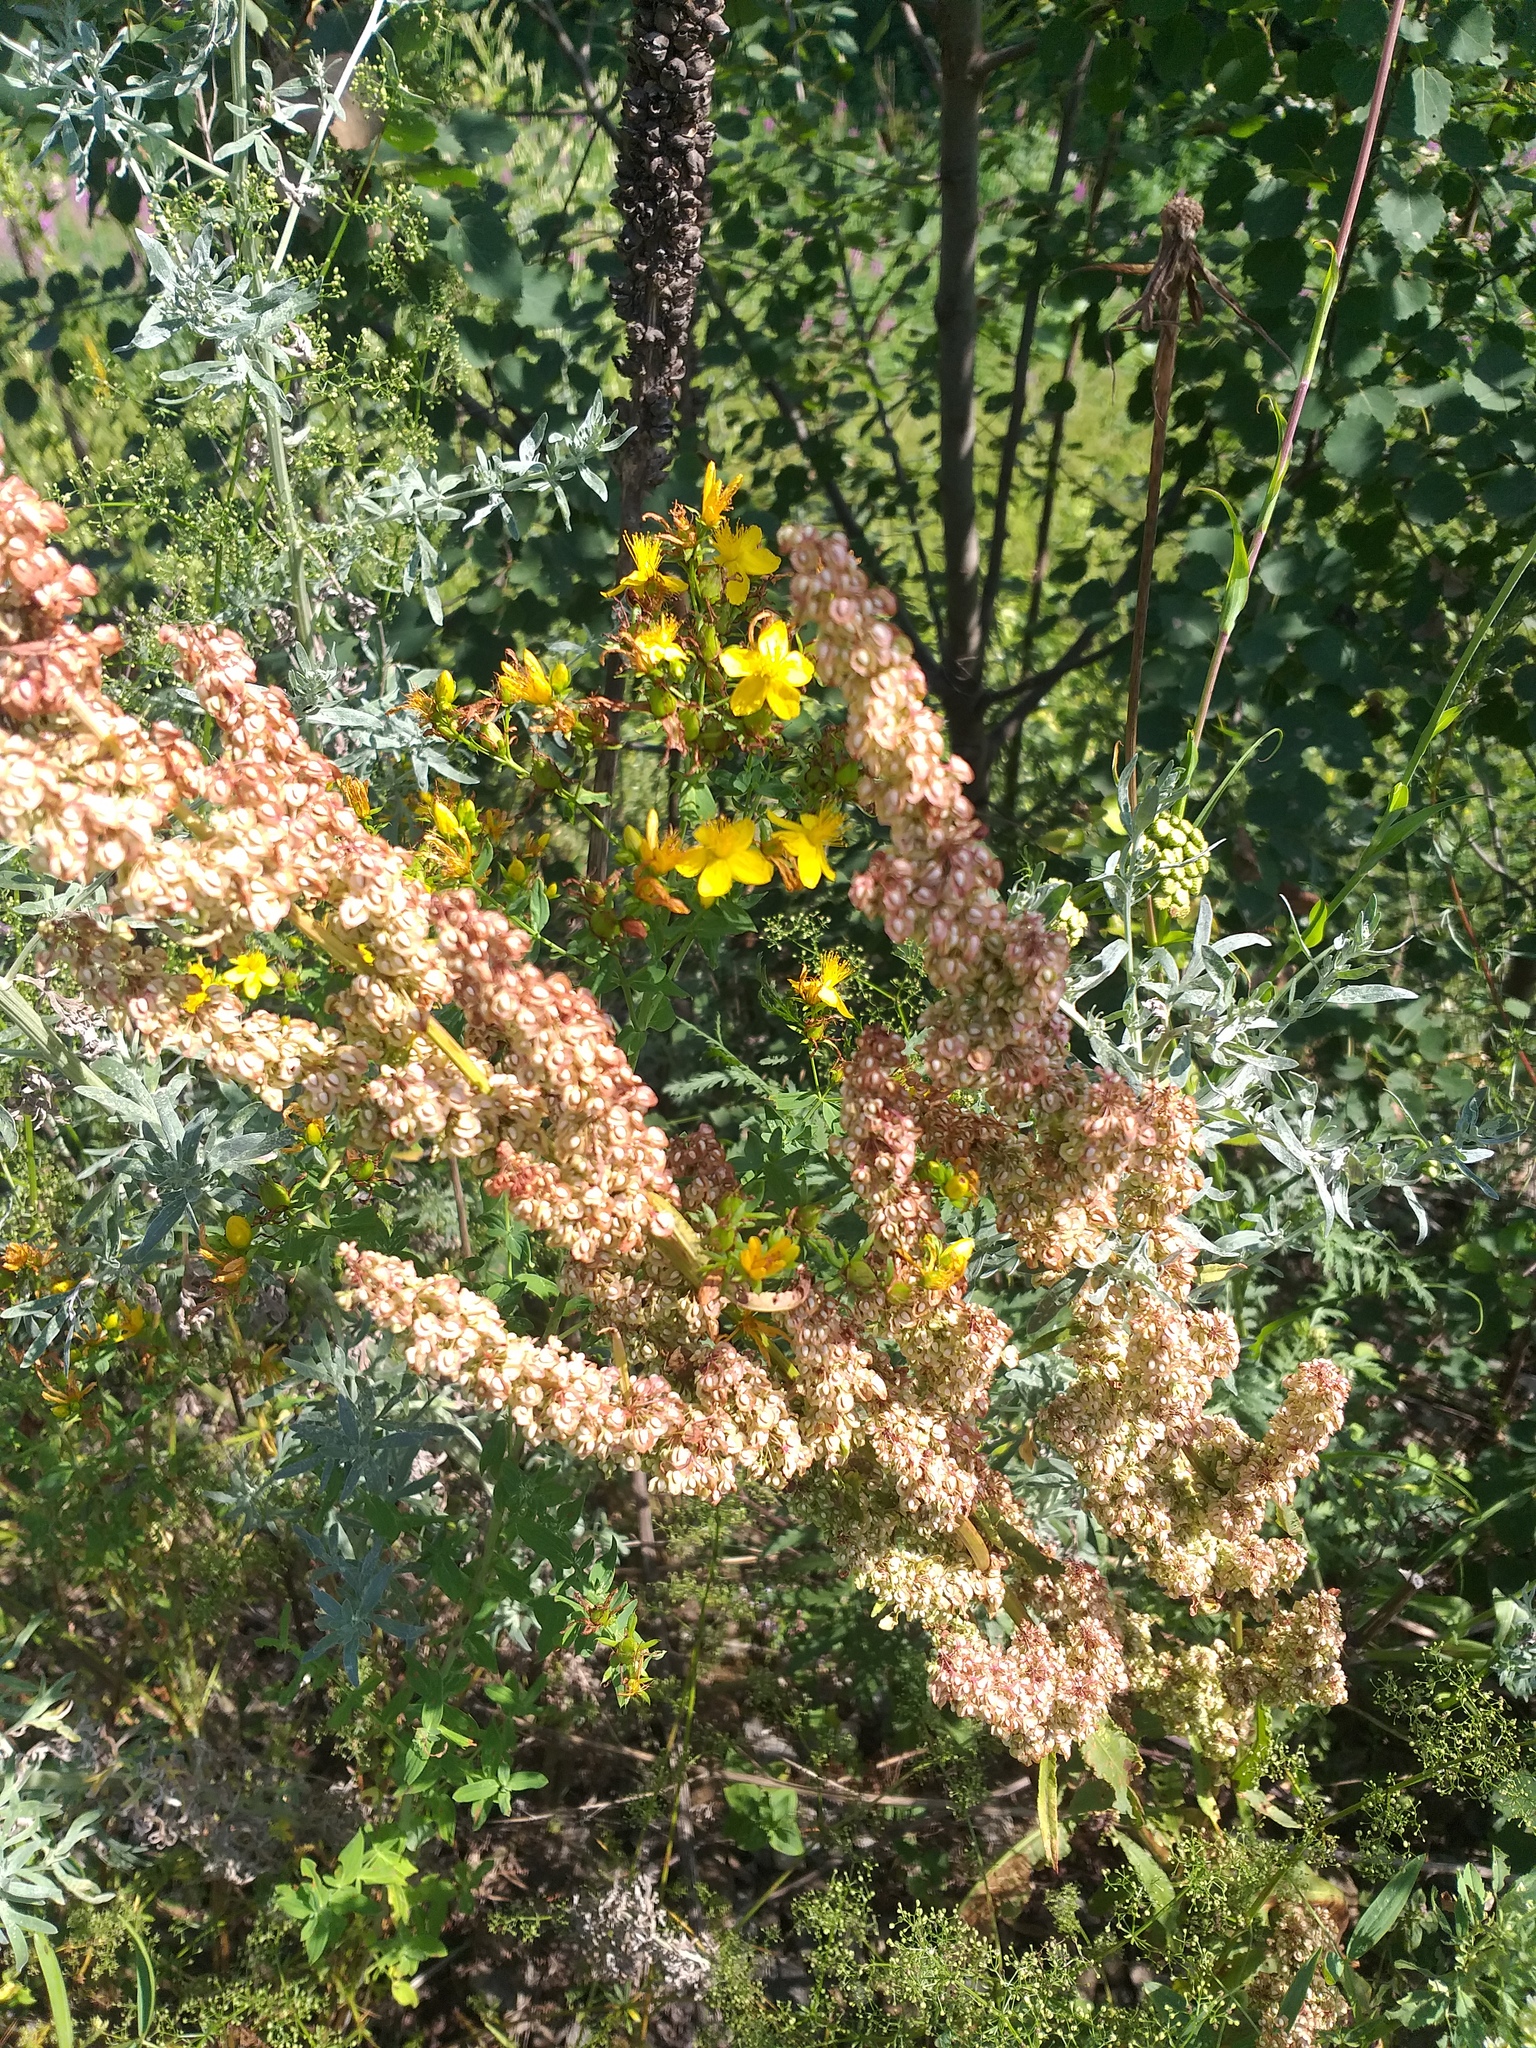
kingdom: Plantae
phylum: Tracheophyta
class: Magnoliopsida
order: Caryophyllales
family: Polygonaceae
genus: Rumex
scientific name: Rumex crispus
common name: Curled dock
